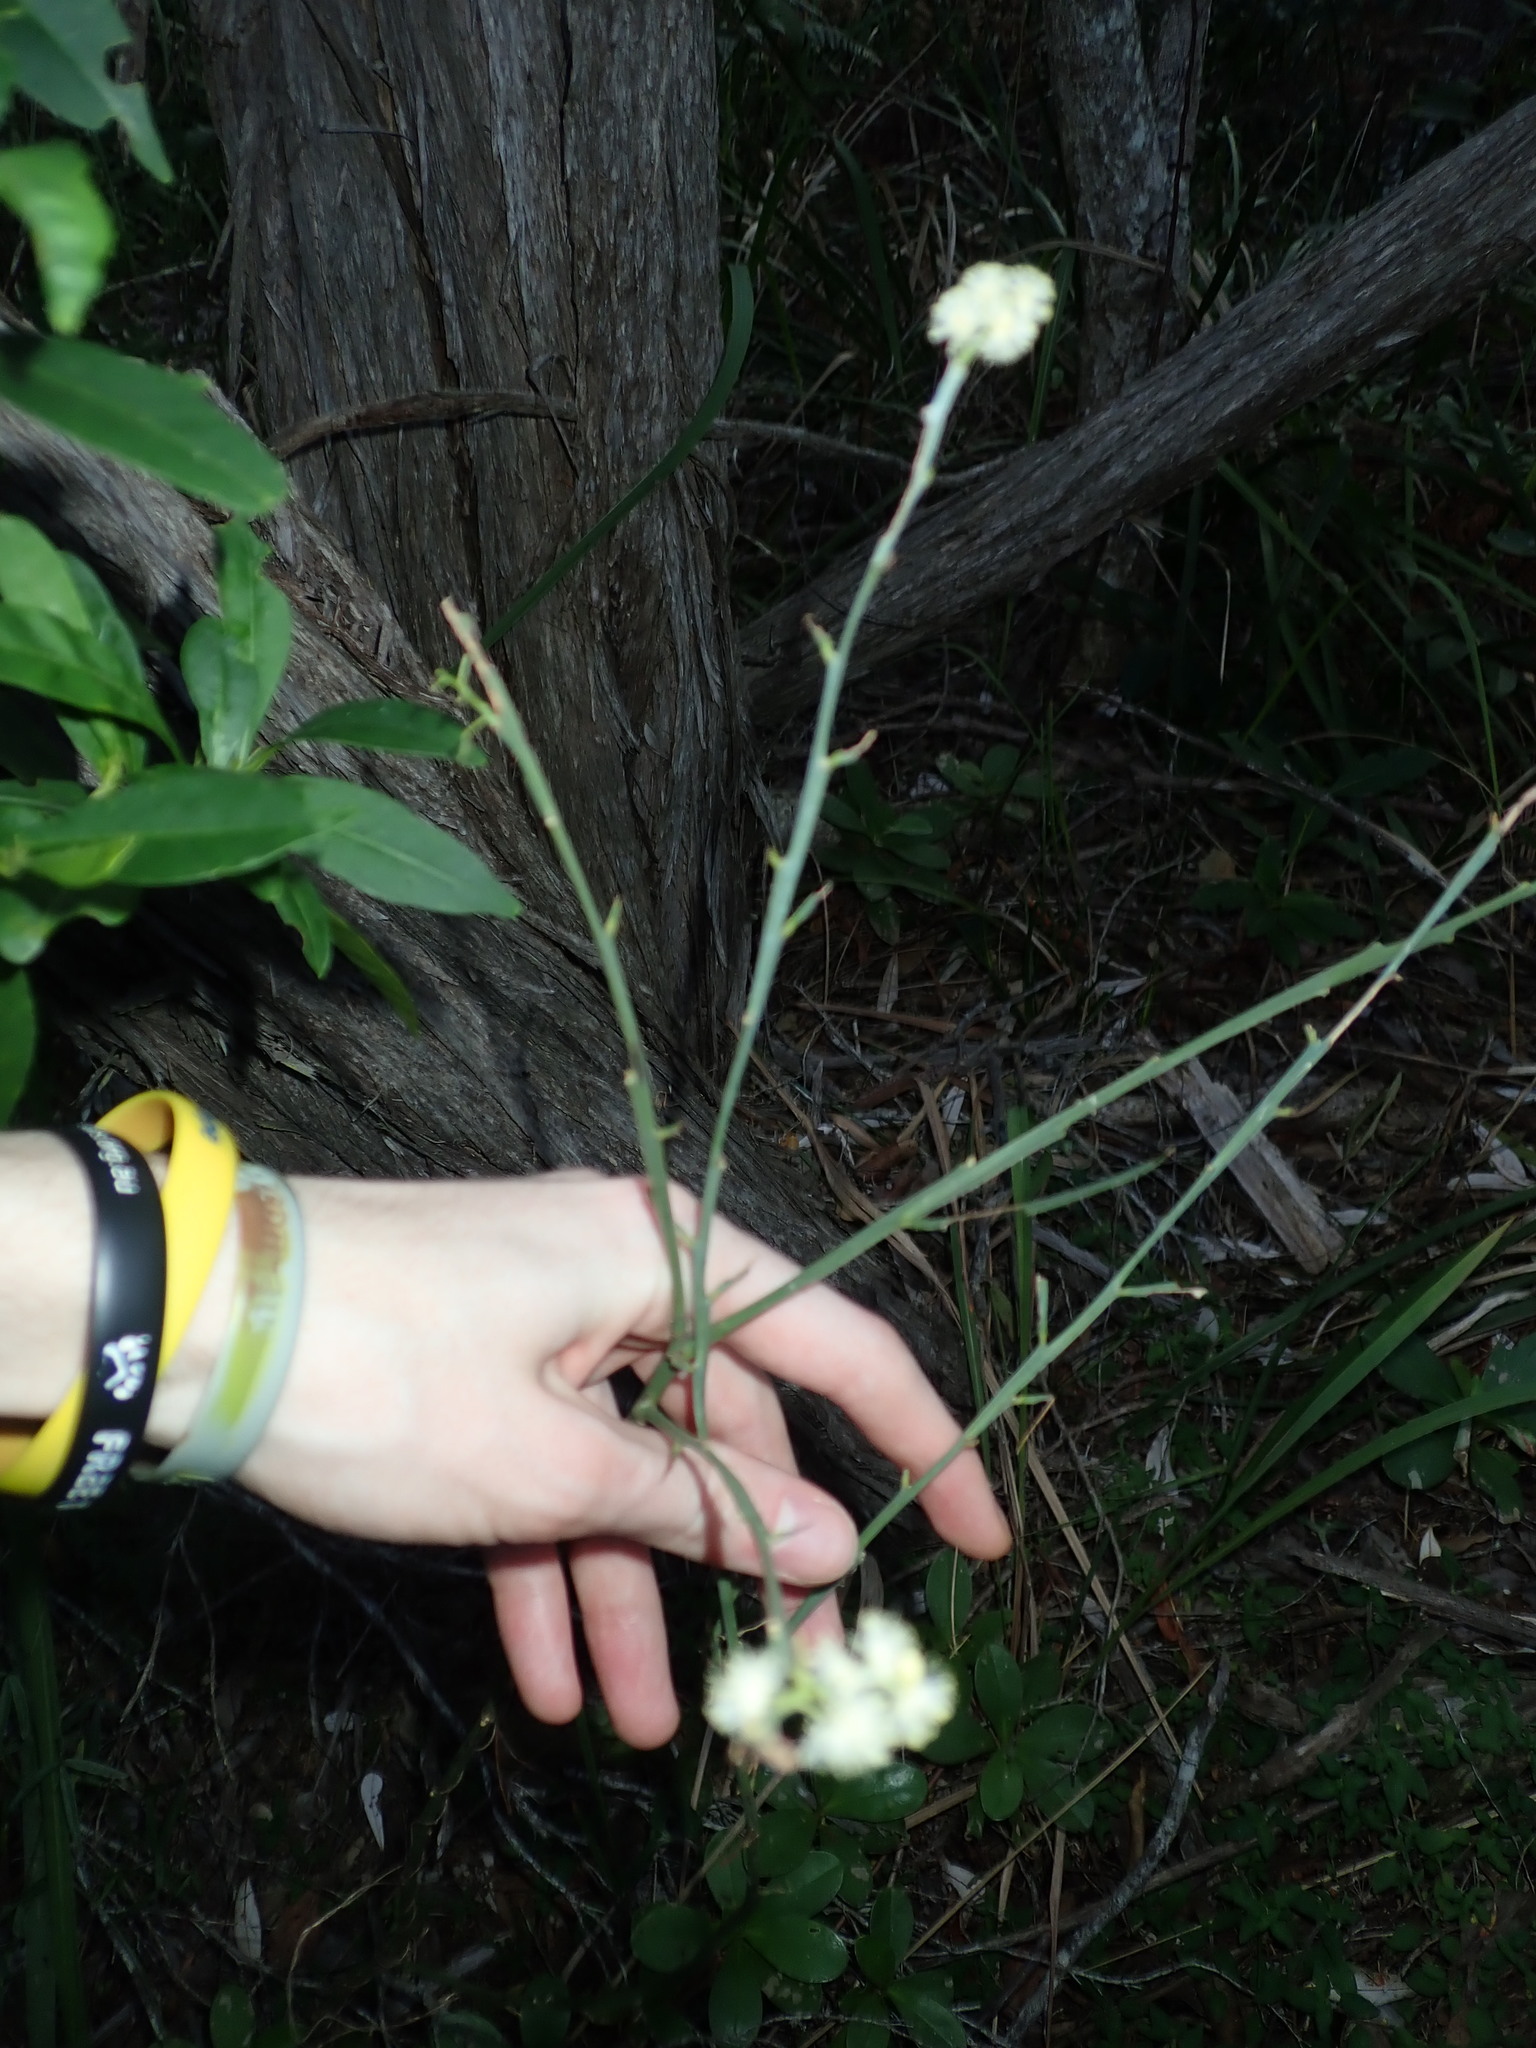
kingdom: Plantae
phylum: Tracheophyta
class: Magnoliopsida
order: Fabales
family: Fabaceae
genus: Acacia
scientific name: Acacia suaveolens
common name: Sweet acacia
